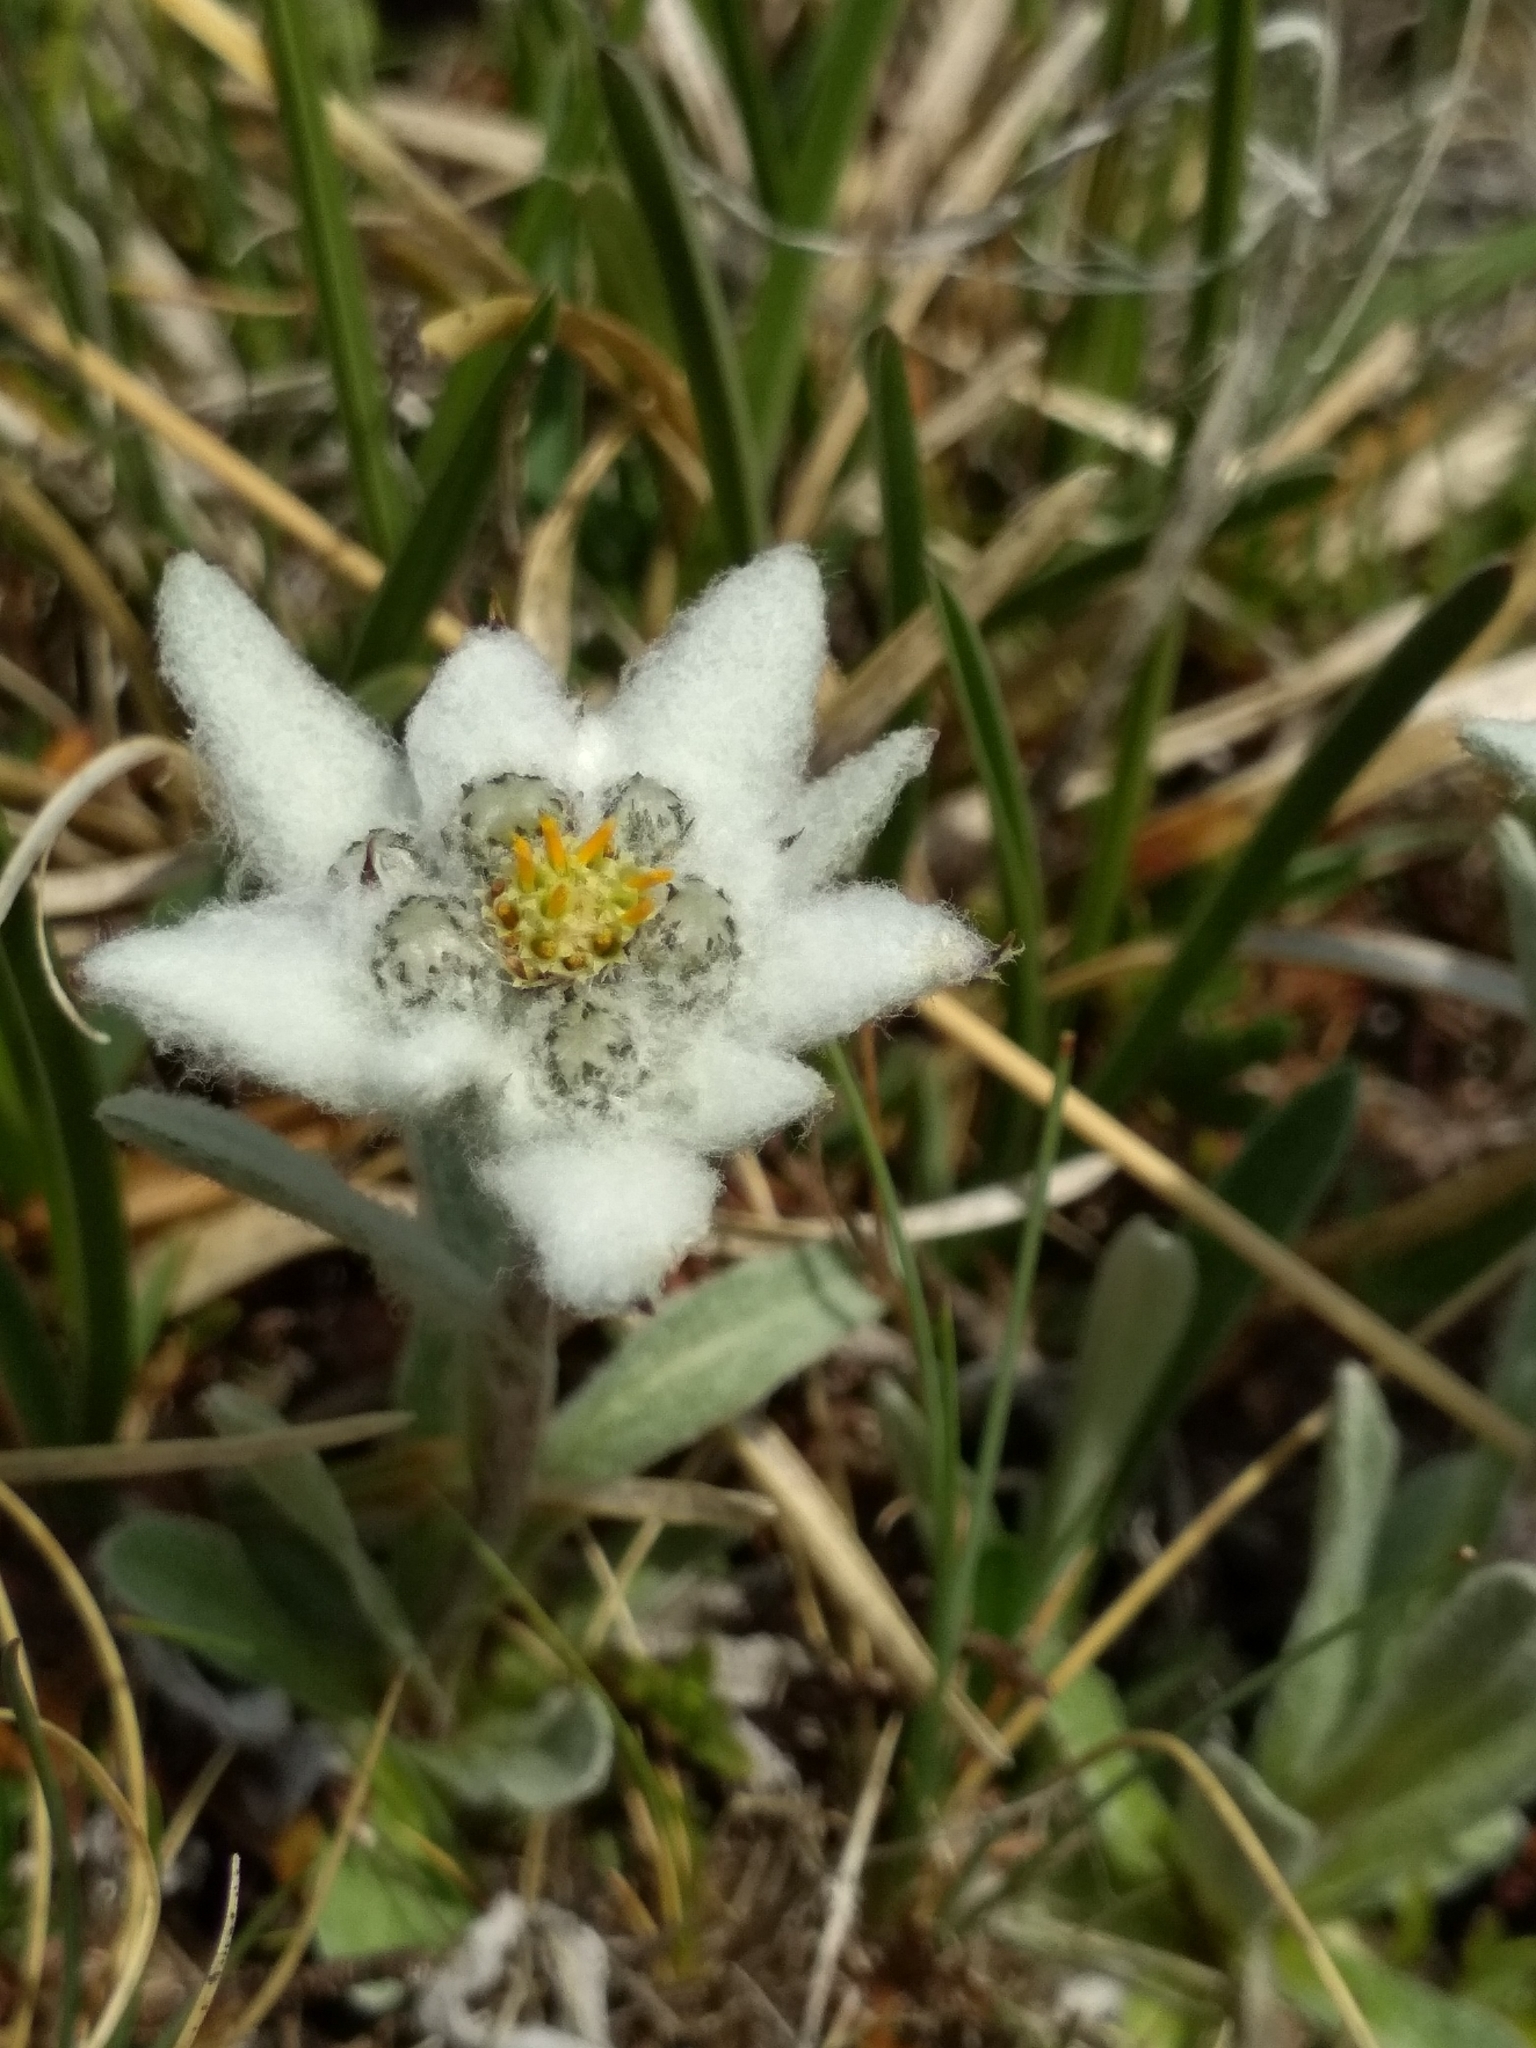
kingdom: Plantae
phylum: Tracheophyta
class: Magnoliopsida
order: Asterales
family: Asteraceae
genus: Leontopodium
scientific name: Leontopodium nivale
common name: Edelweiss
